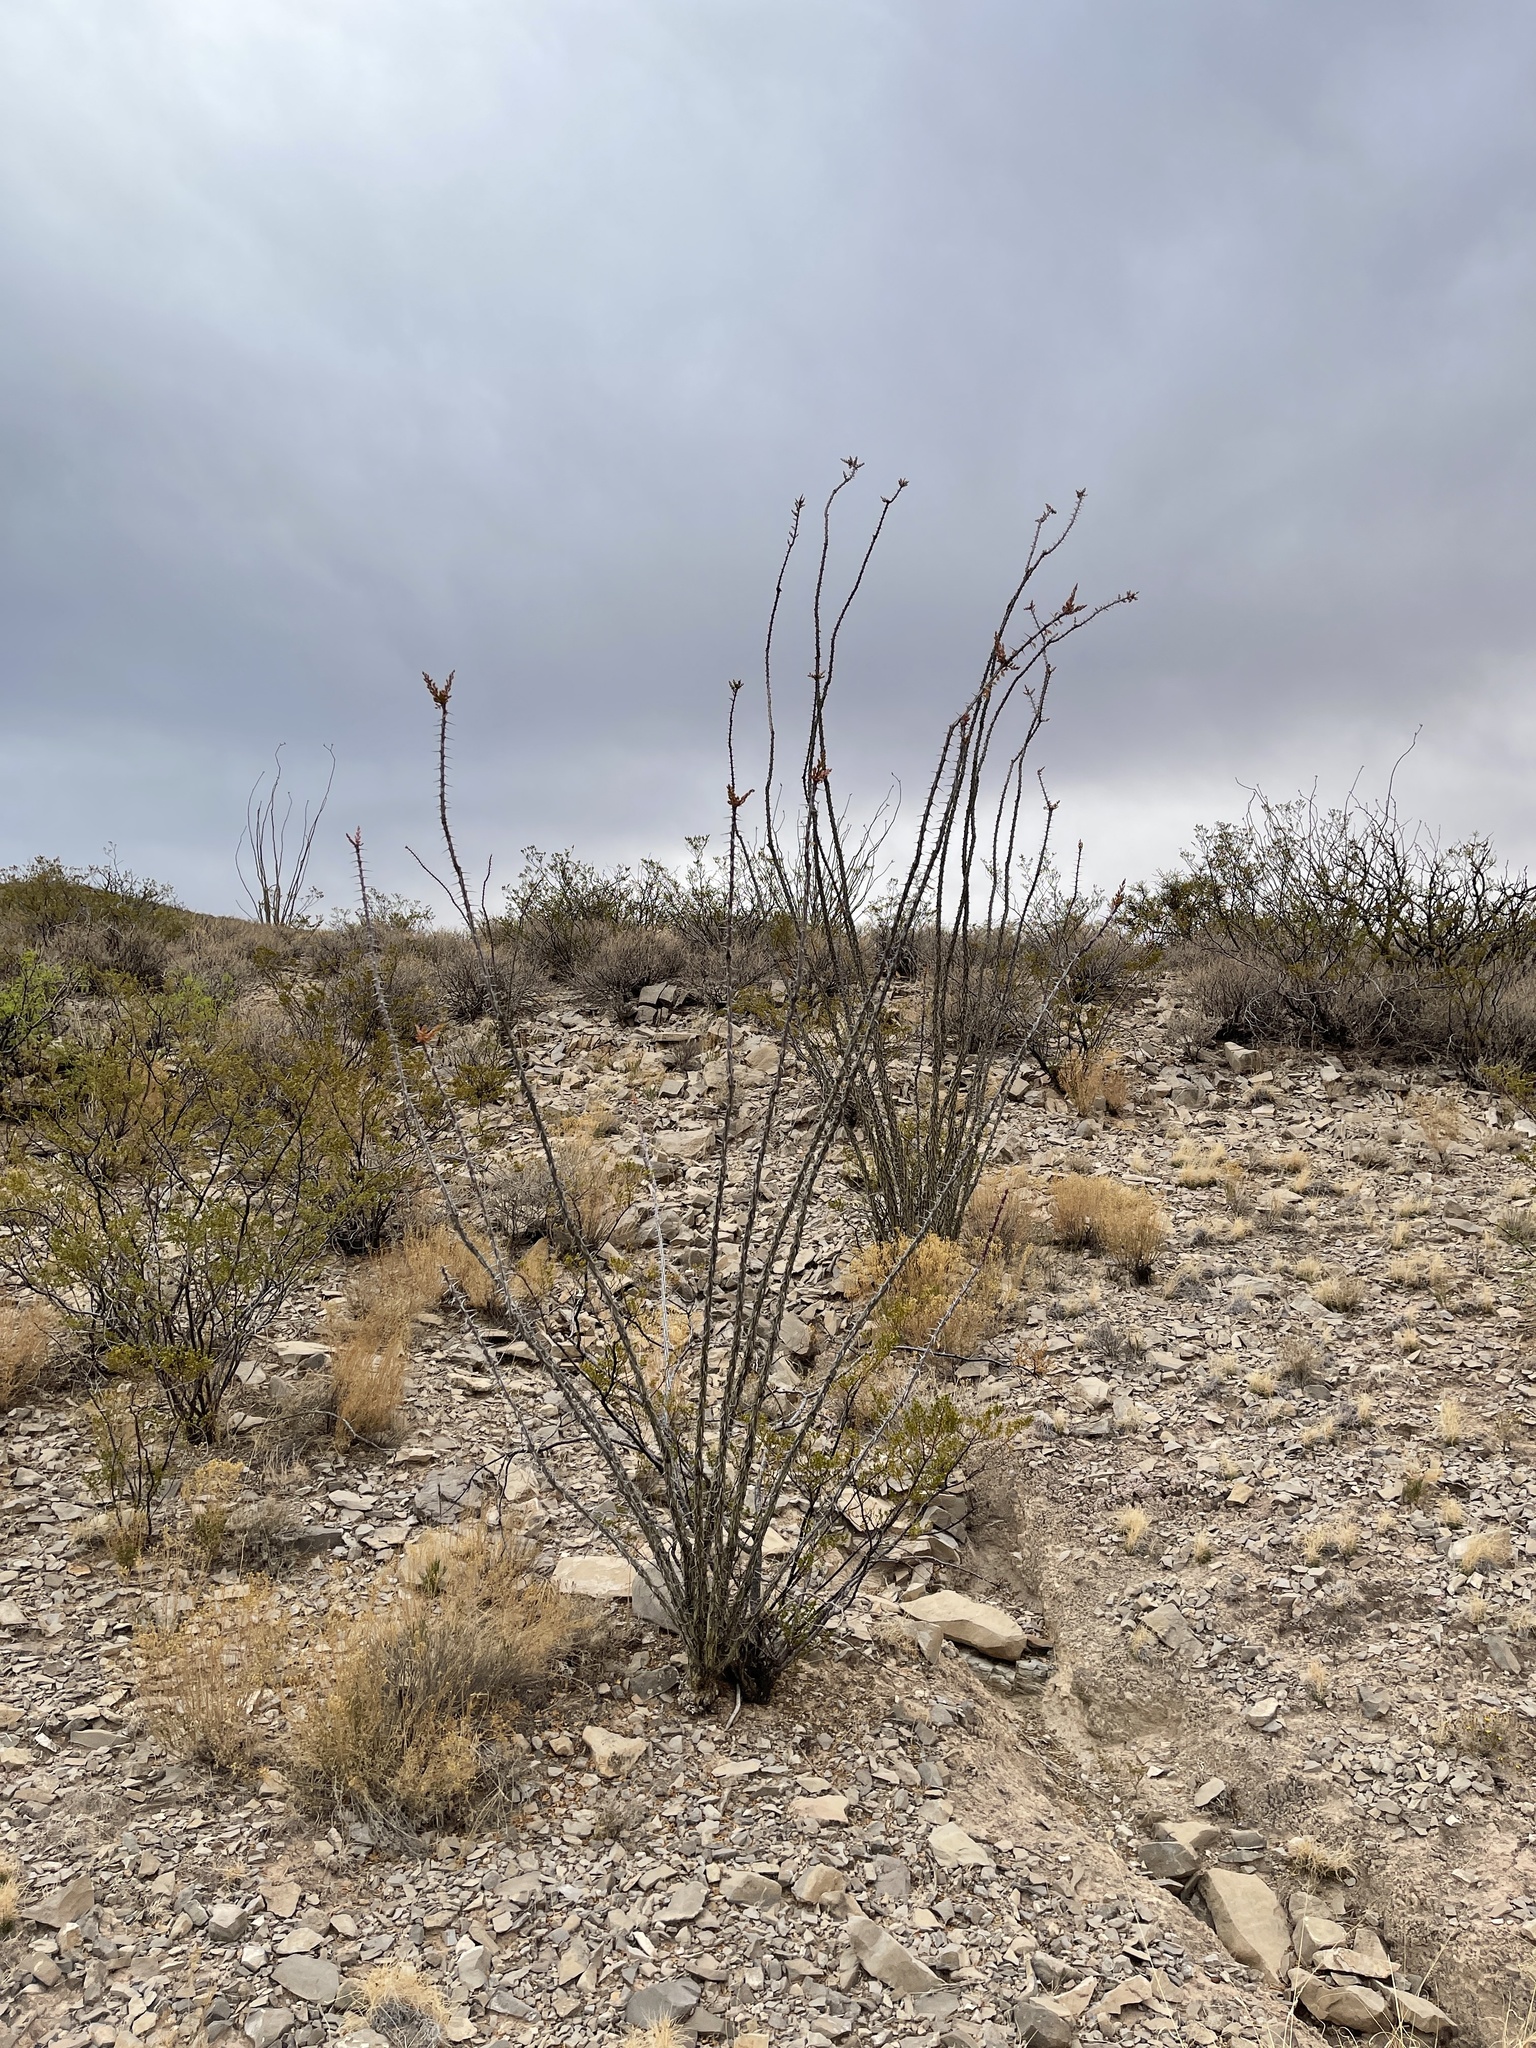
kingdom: Plantae
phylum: Tracheophyta
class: Magnoliopsida
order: Ericales
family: Fouquieriaceae
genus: Fouquieria
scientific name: Fouquieria splendens
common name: Vine-cactus
